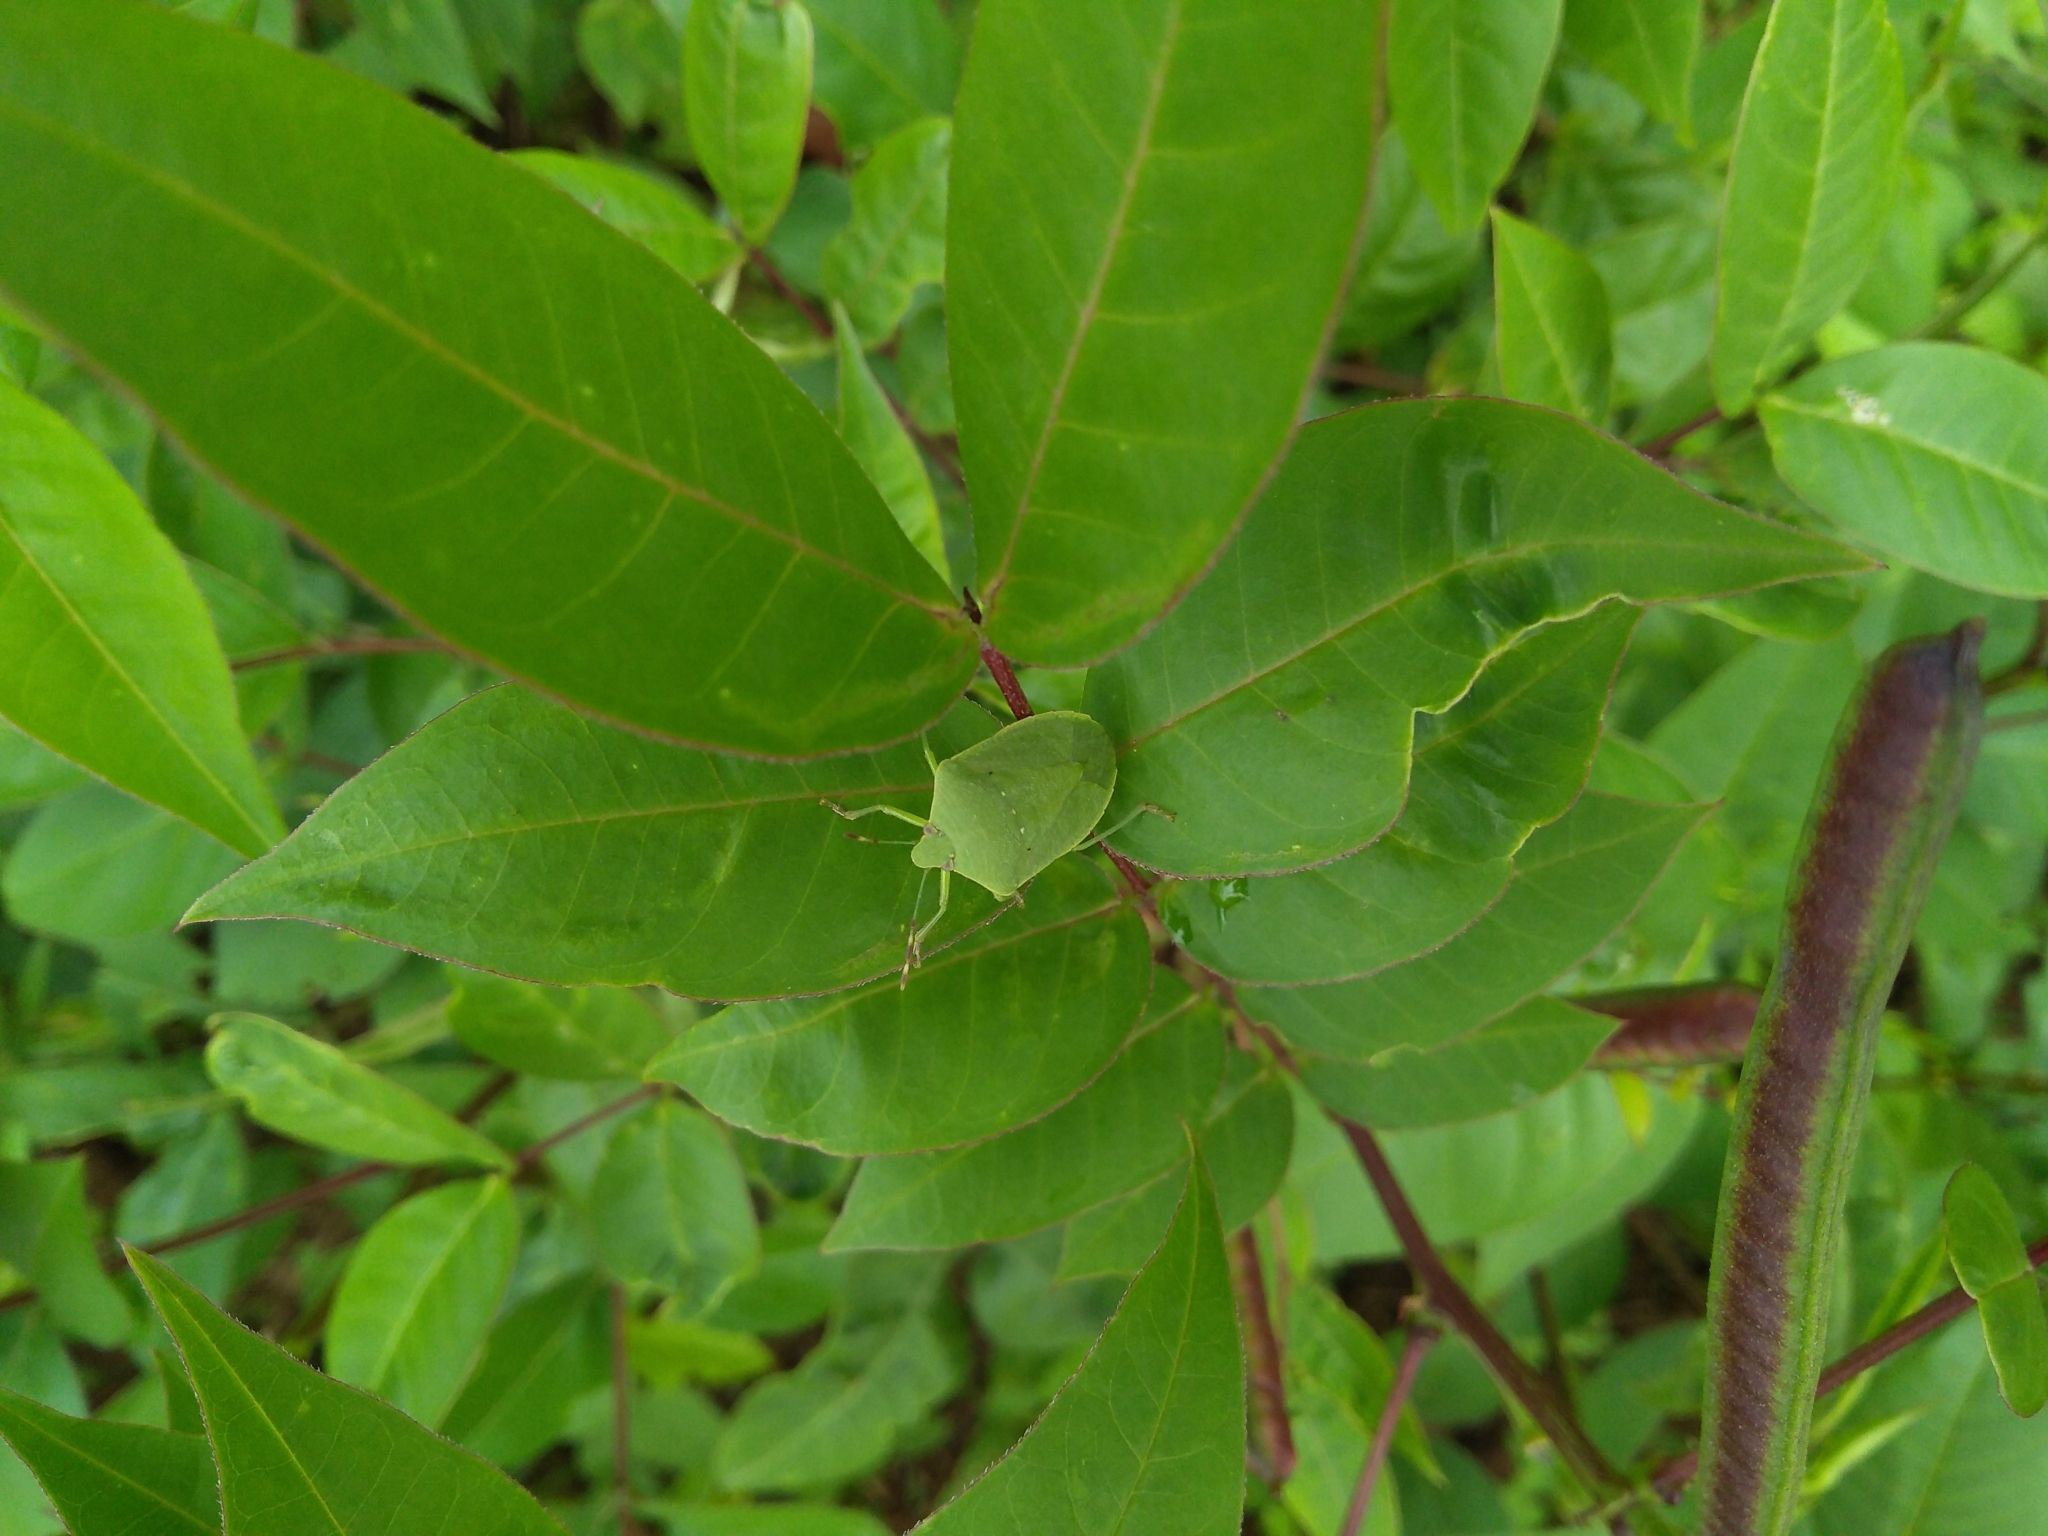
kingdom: Animalia
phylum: Arthropoda
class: Insecta
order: Hemiptera
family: Pentatomidae
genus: Nezara
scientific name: Nezara viridula
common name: Southern green stink bug
